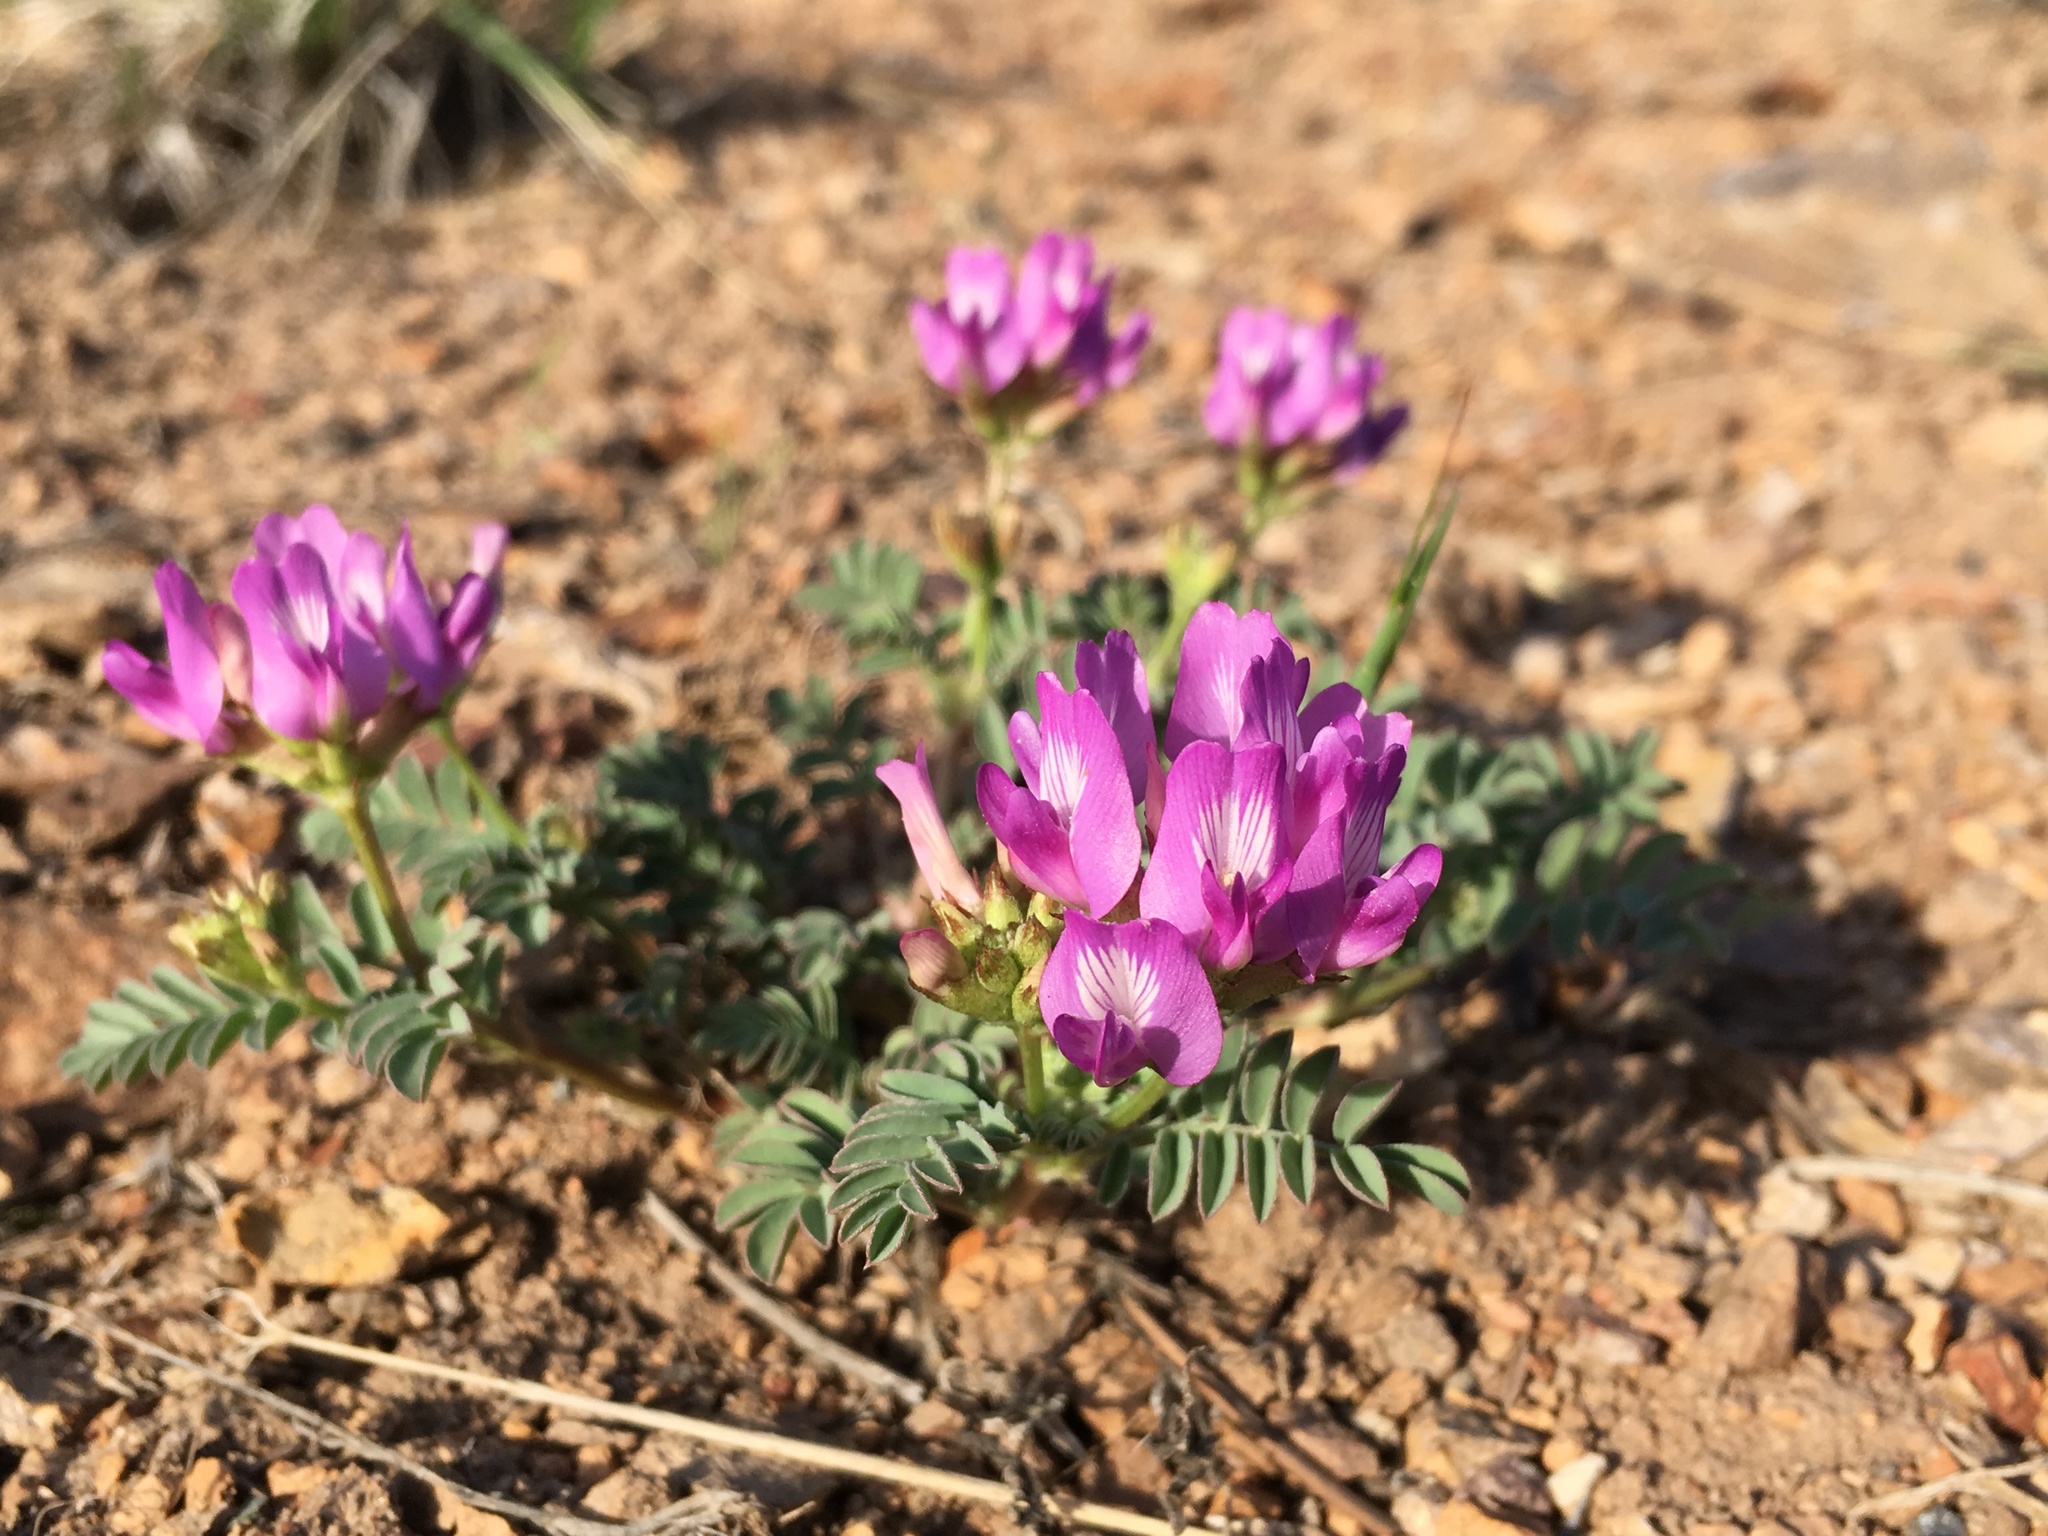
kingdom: Plantae
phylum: Tracheophyta
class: Magnoliopsida
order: Fabales
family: Fabaceae
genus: Astragalus
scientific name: Astragalus lentiginosus
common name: Freckled milkvetch
